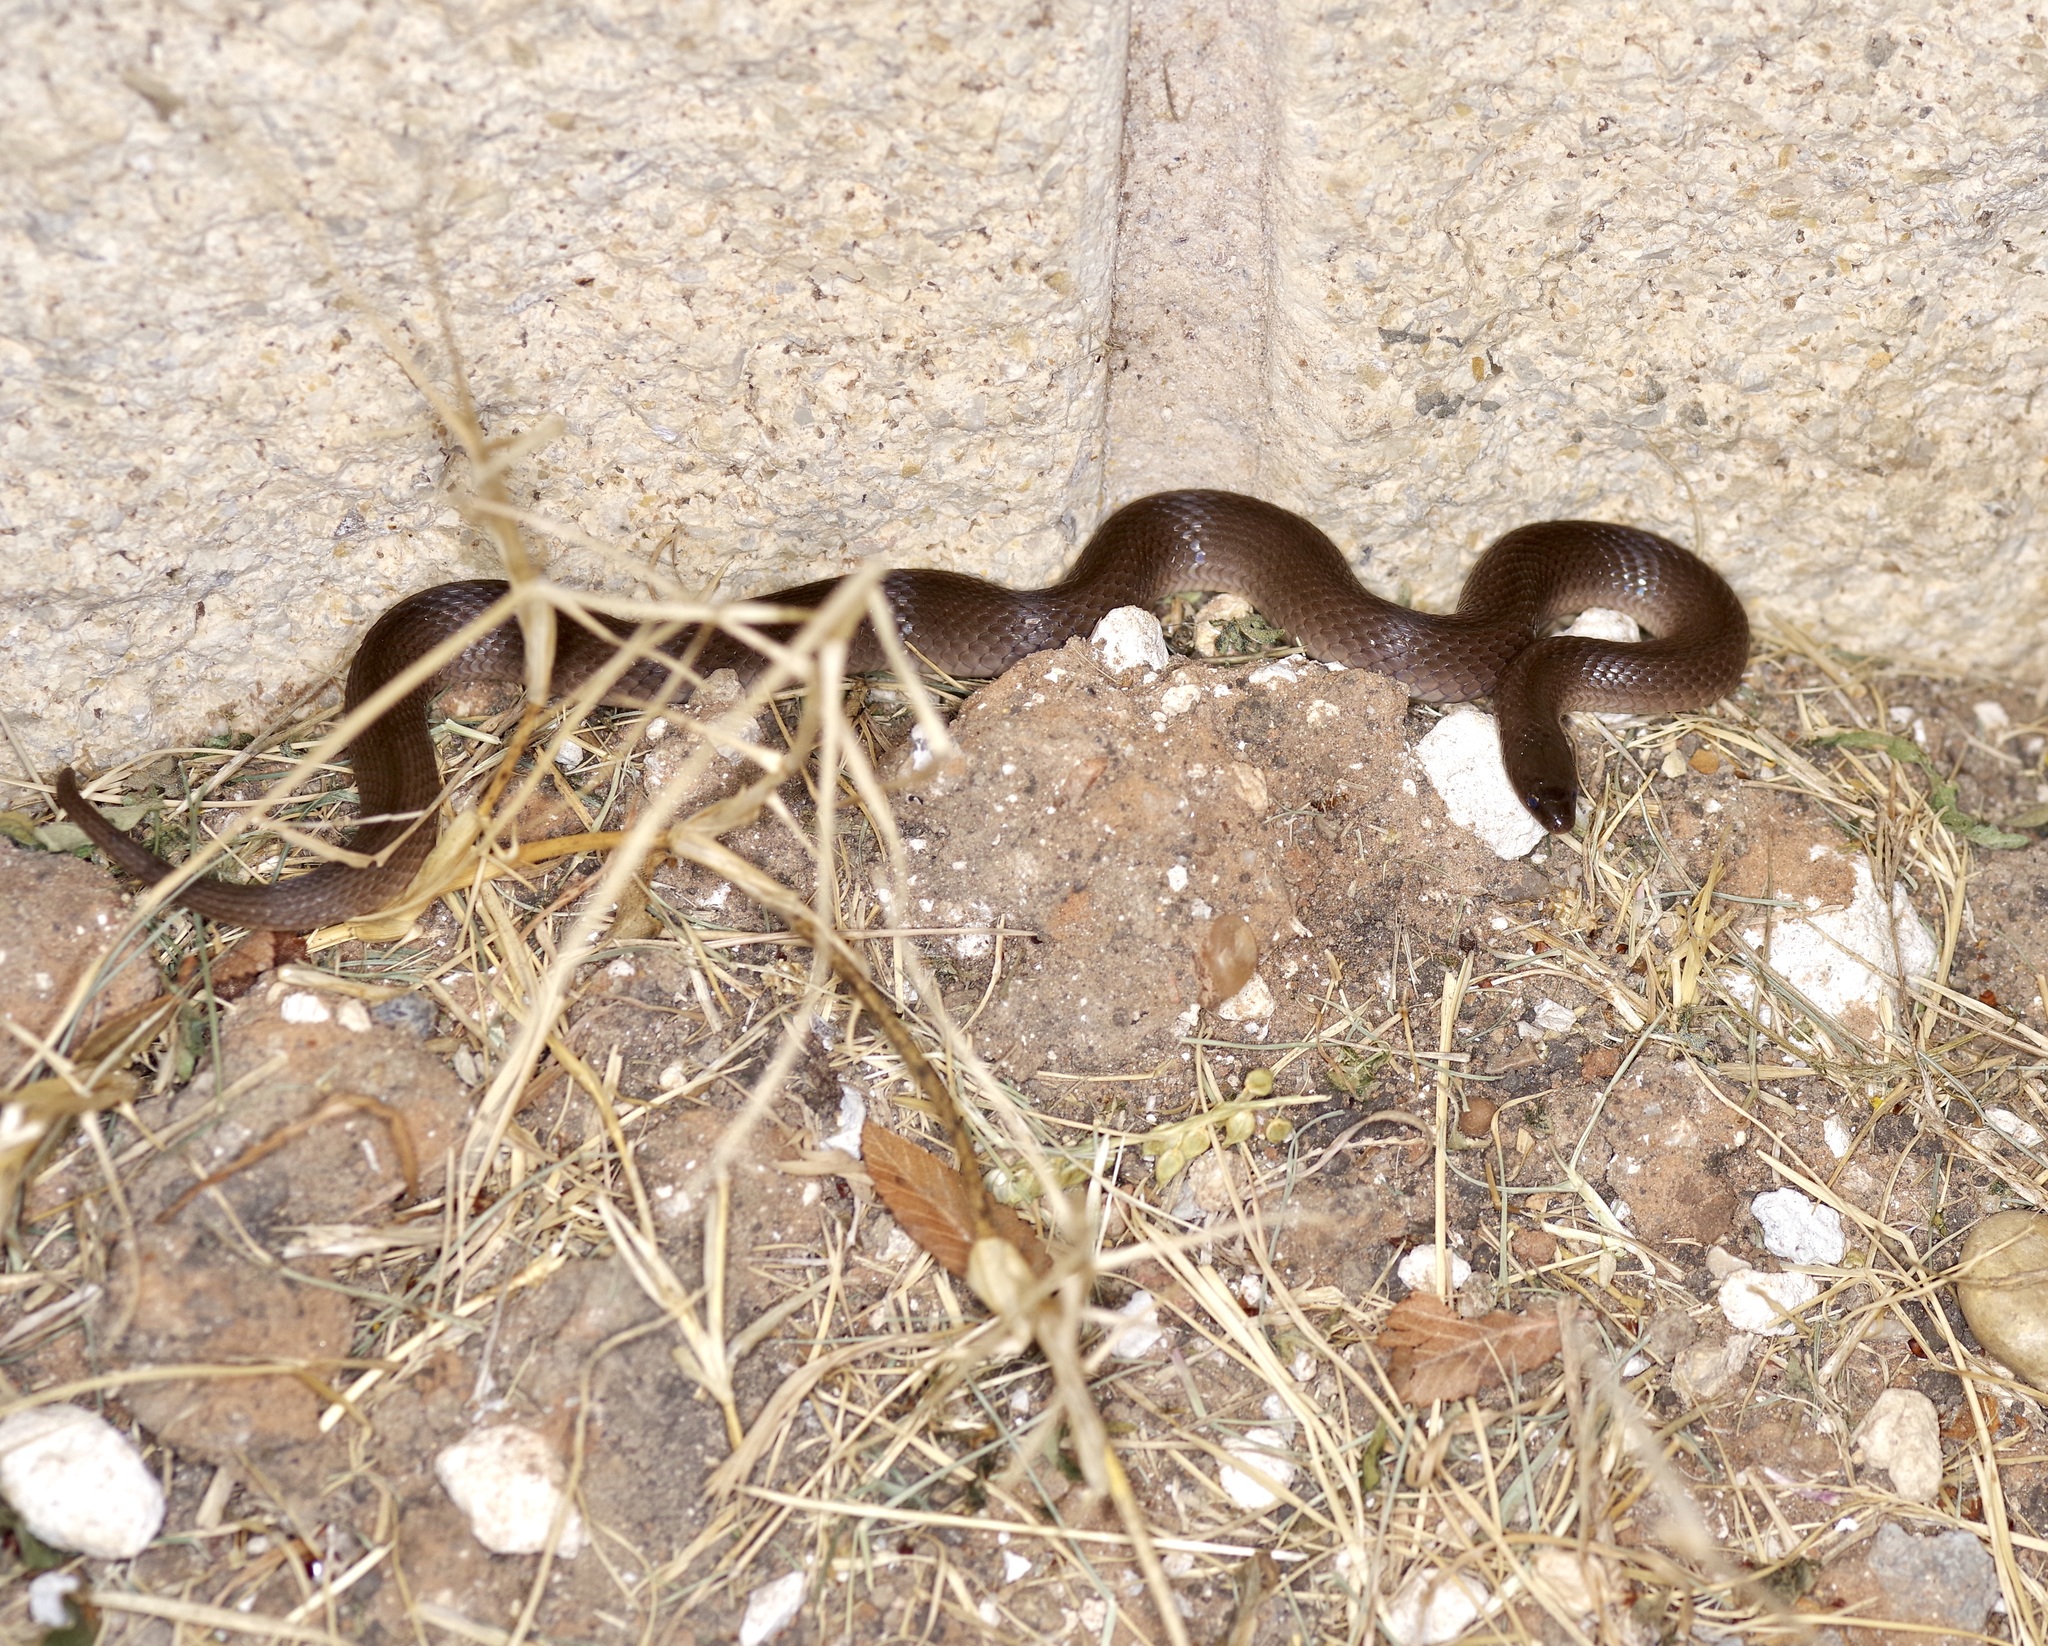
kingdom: Animalia
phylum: Chordata
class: Squamata
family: Colubridae
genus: Haldea
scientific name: Haldea striatula
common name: Rough earth snake
